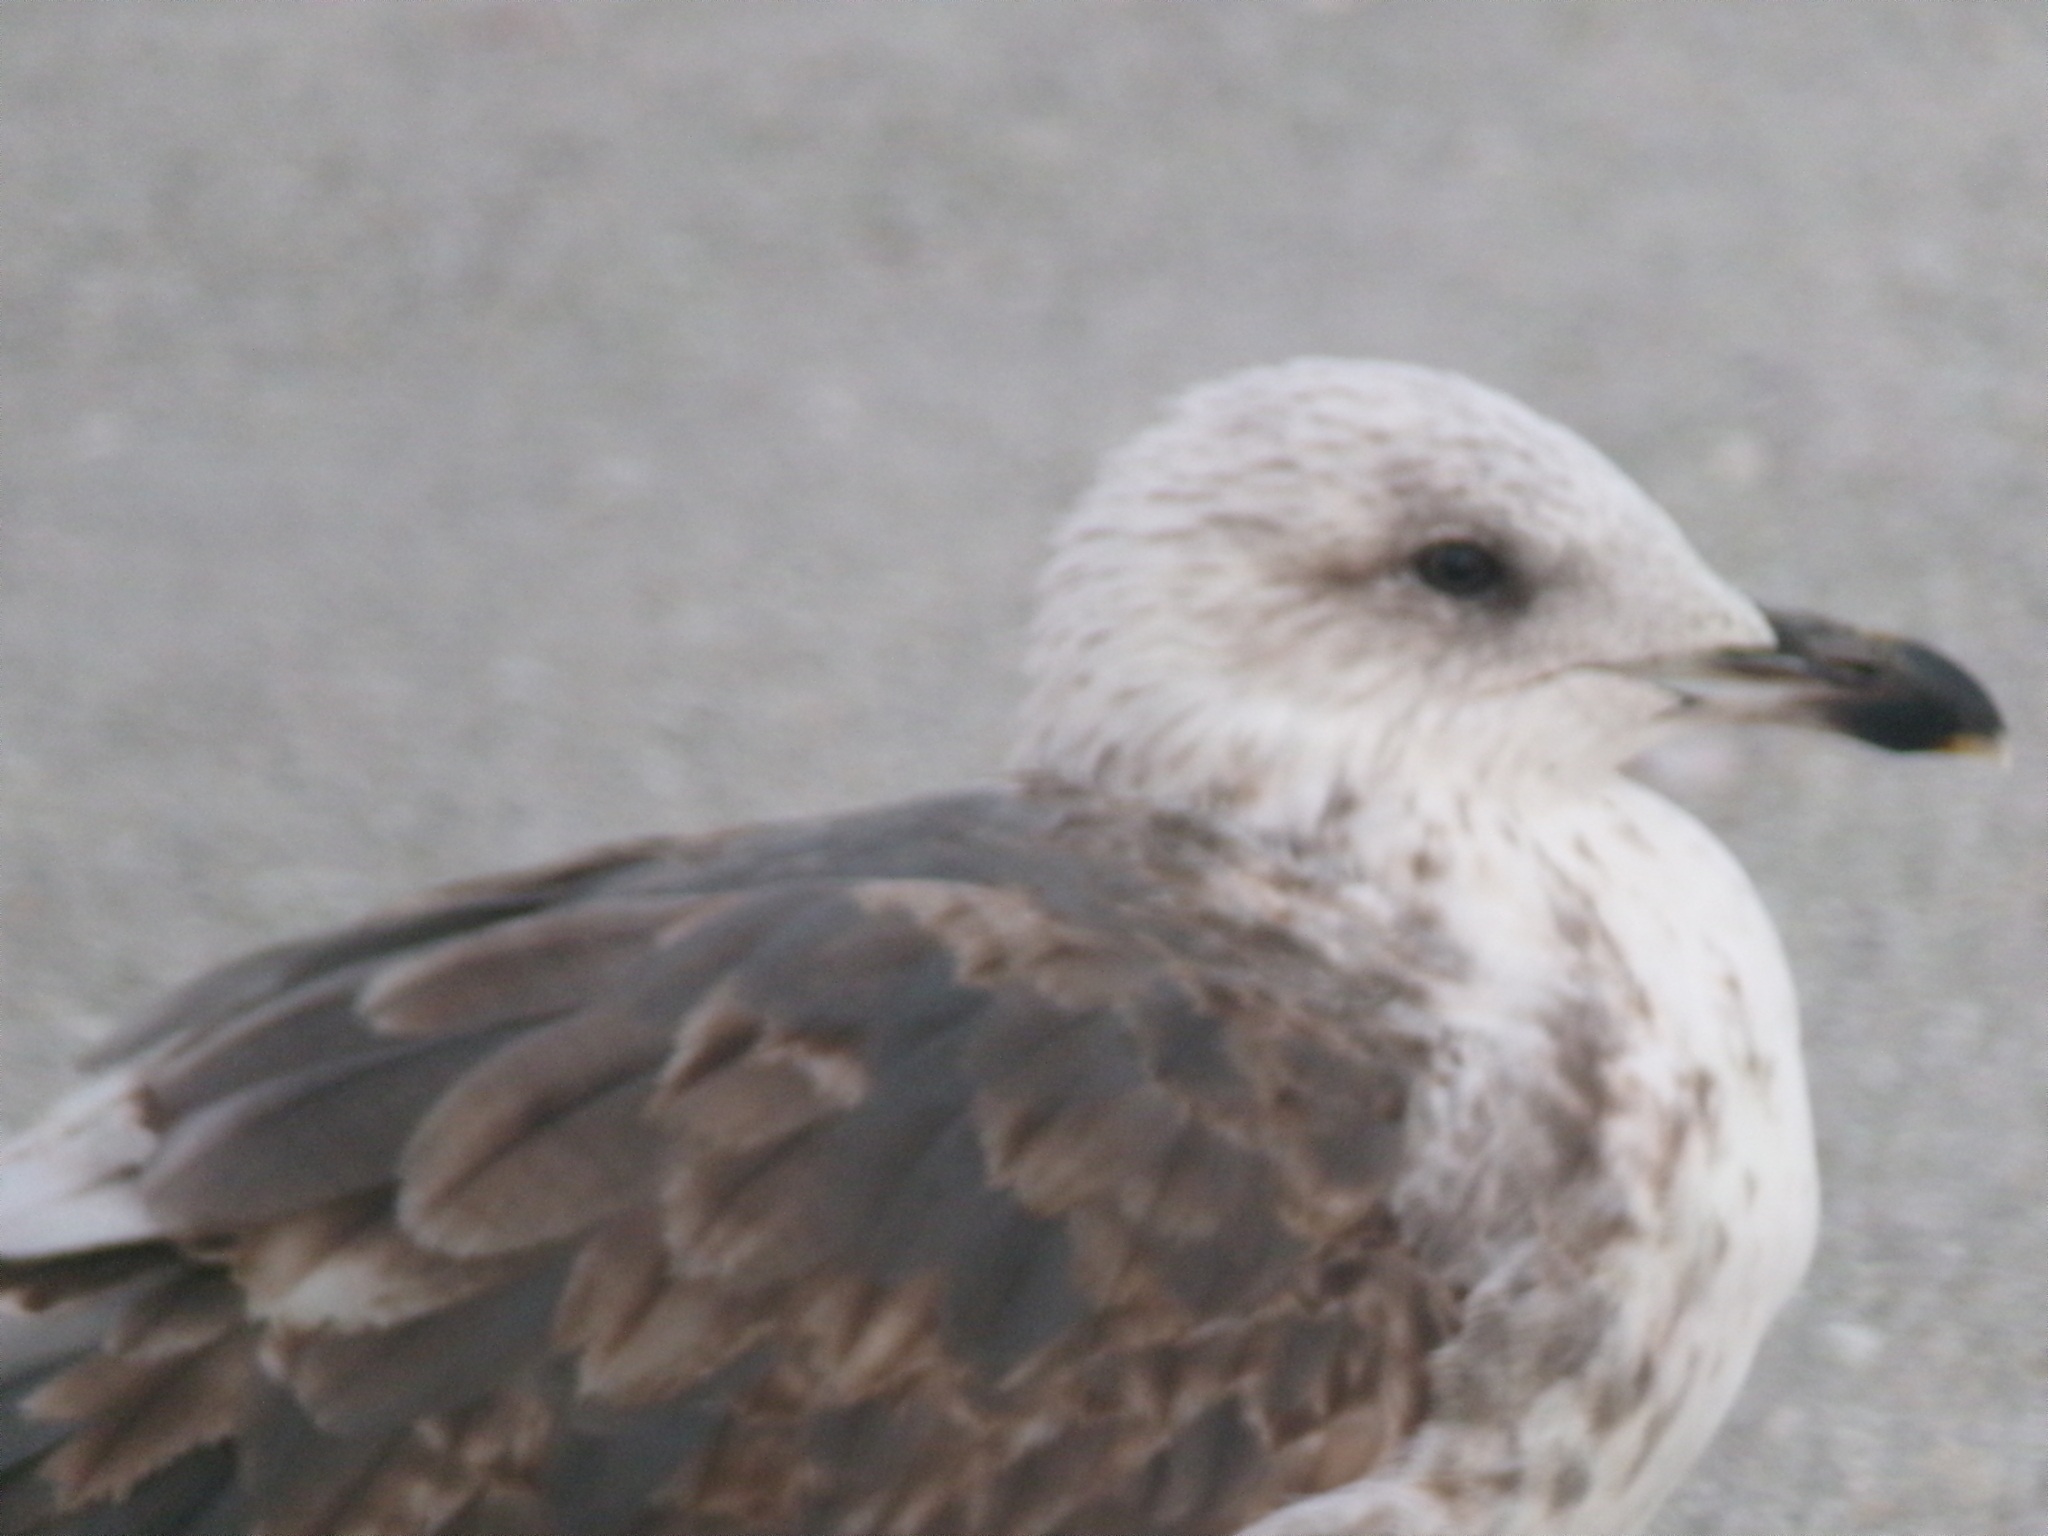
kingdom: Animalia
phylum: Chordata
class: Aves
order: Charadriiformes
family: Laridae
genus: Larus
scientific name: Larus fuscus
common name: Lesser black-backed gull
